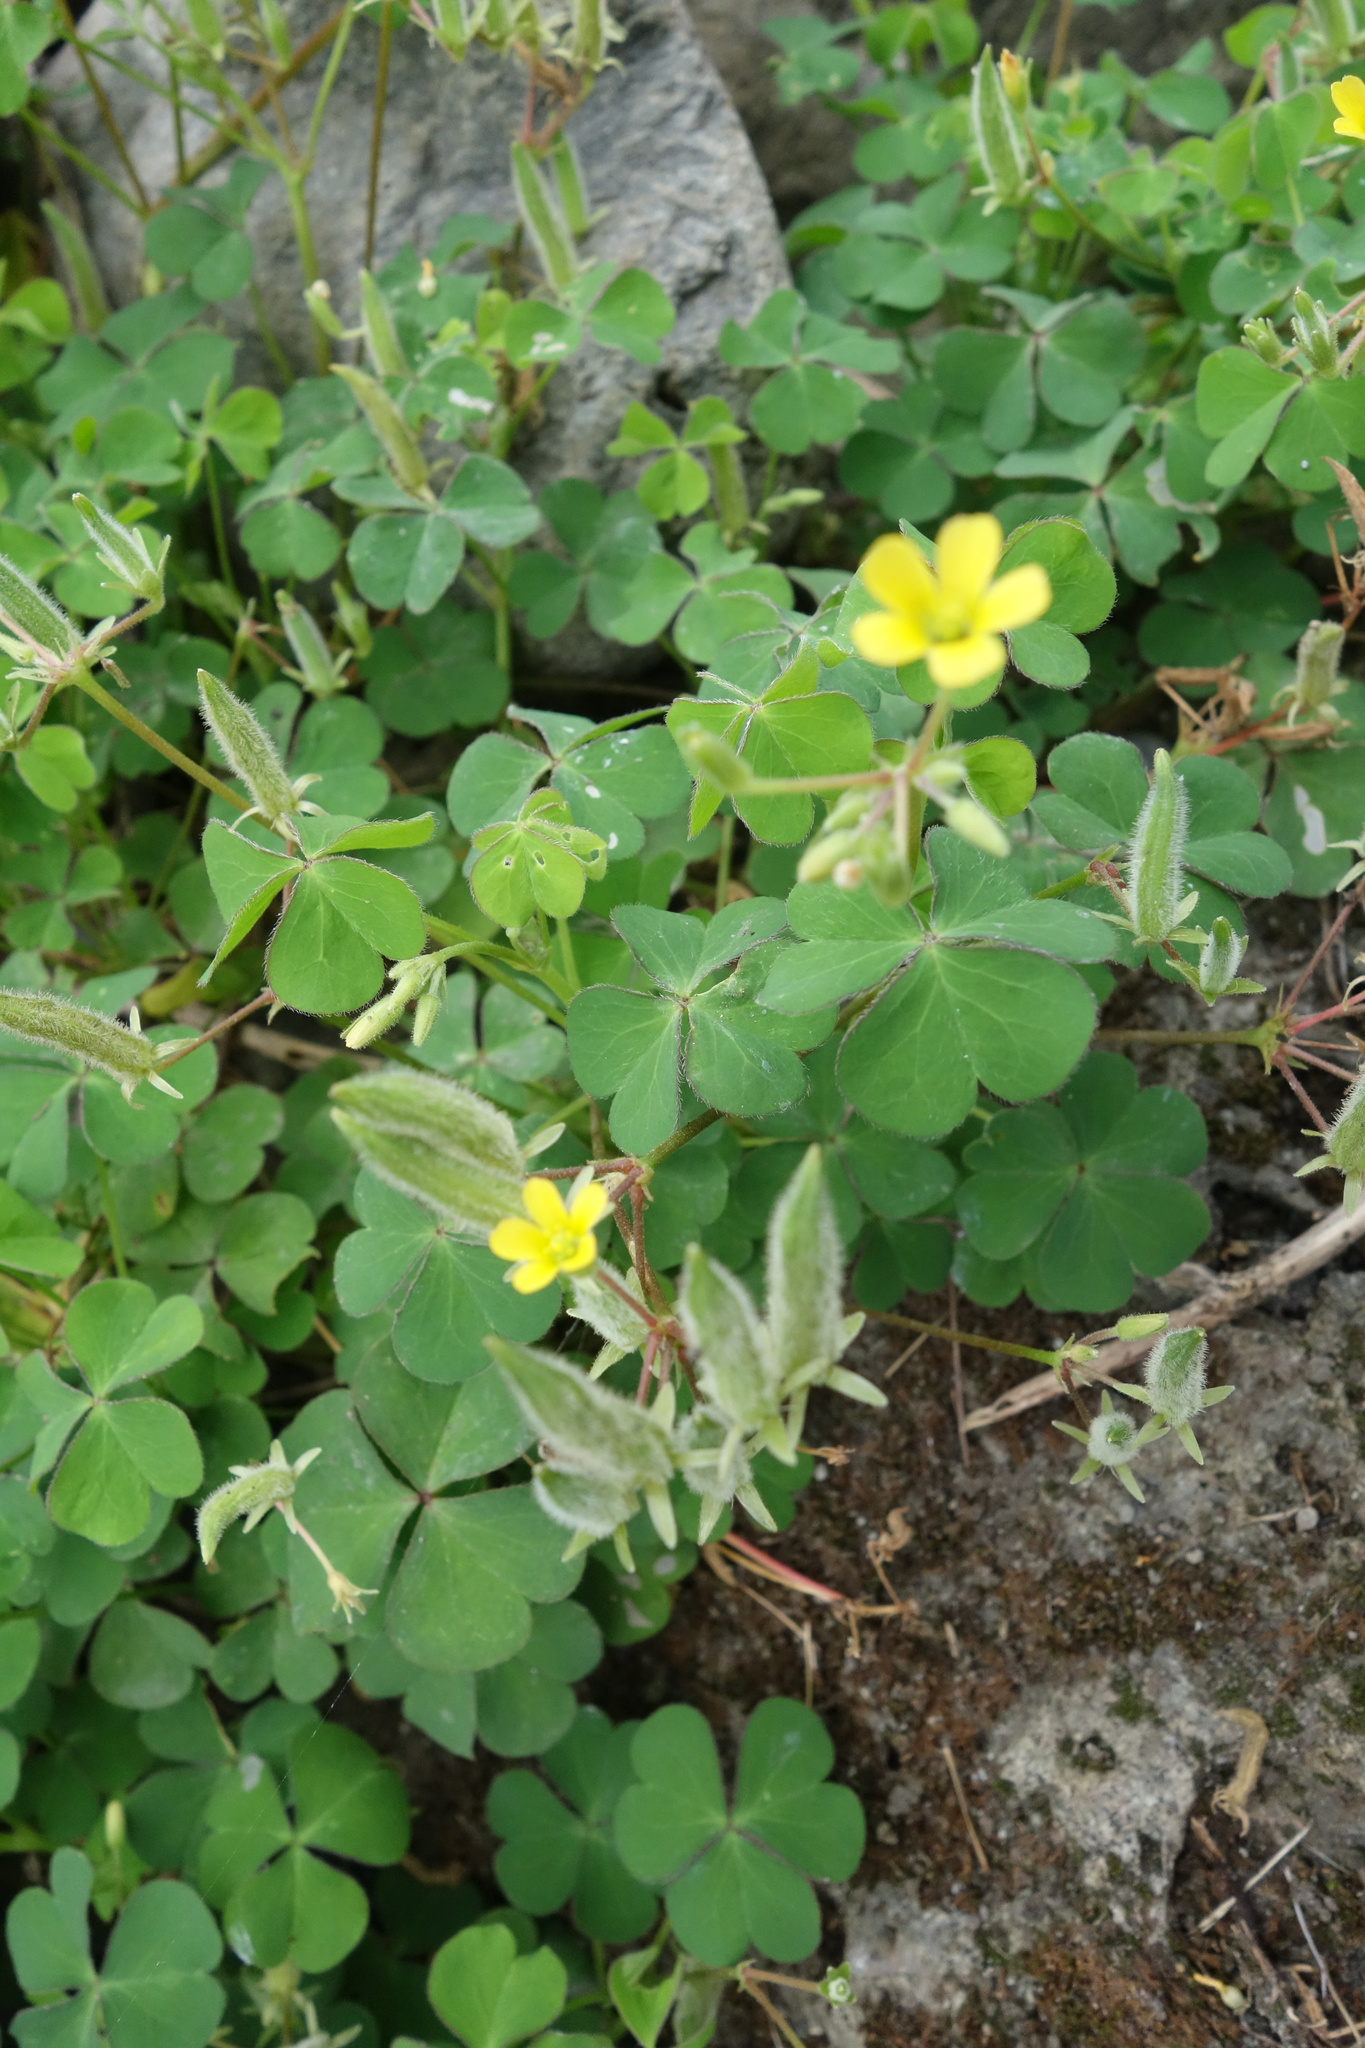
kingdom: Plantae
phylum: Tracheophyta
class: Magnoliopsida
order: Oxalidales
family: Oxalidaceae
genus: Oxalis
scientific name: Oxalis corniculata
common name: Procumbent yellow-sorrel
